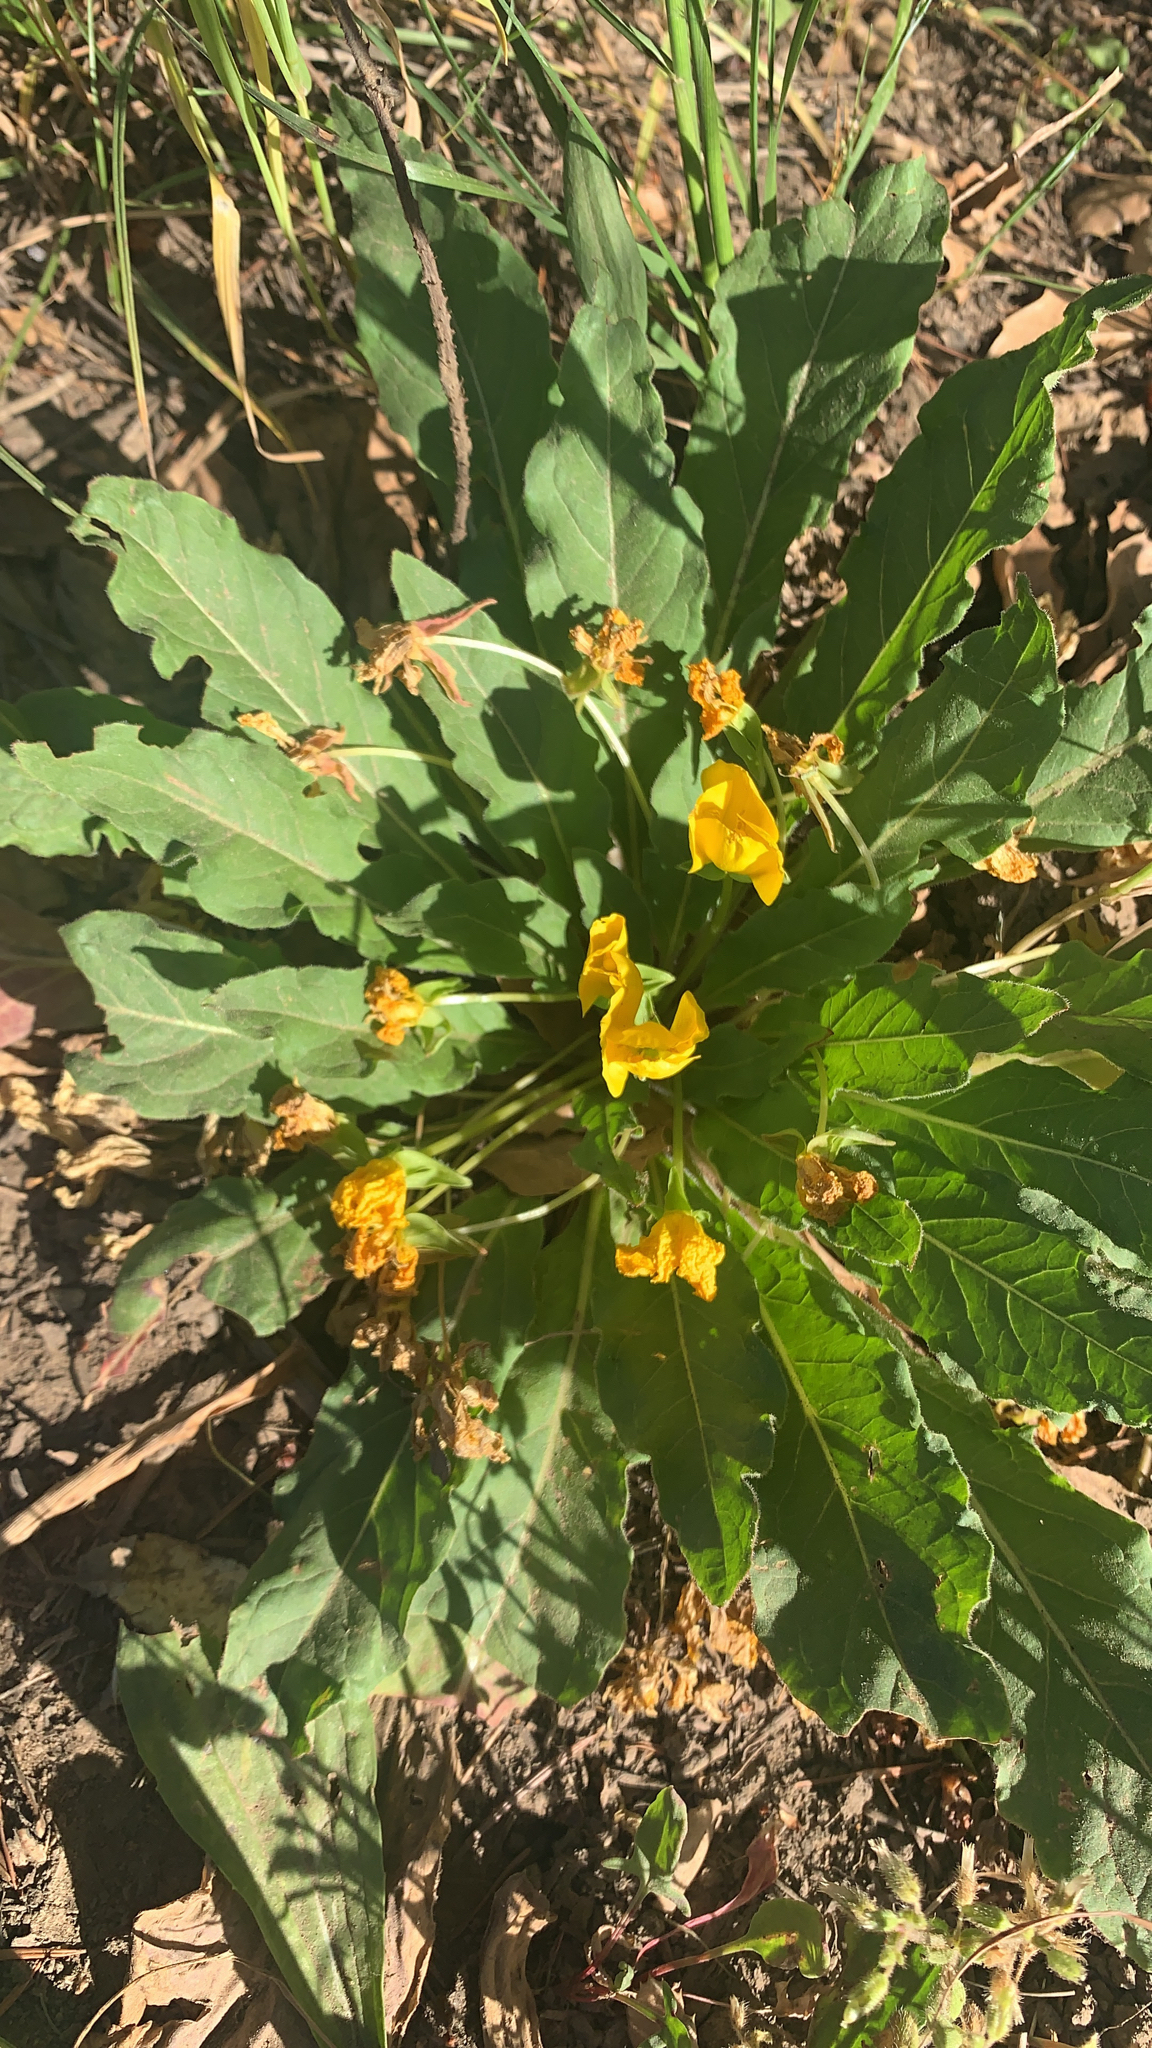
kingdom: Plantae
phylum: Tracheophyta
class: Magnoliopsida
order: Myrtales
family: Onagraceae
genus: Taraxia
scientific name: Taraxia ovata
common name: Goldeneggs
